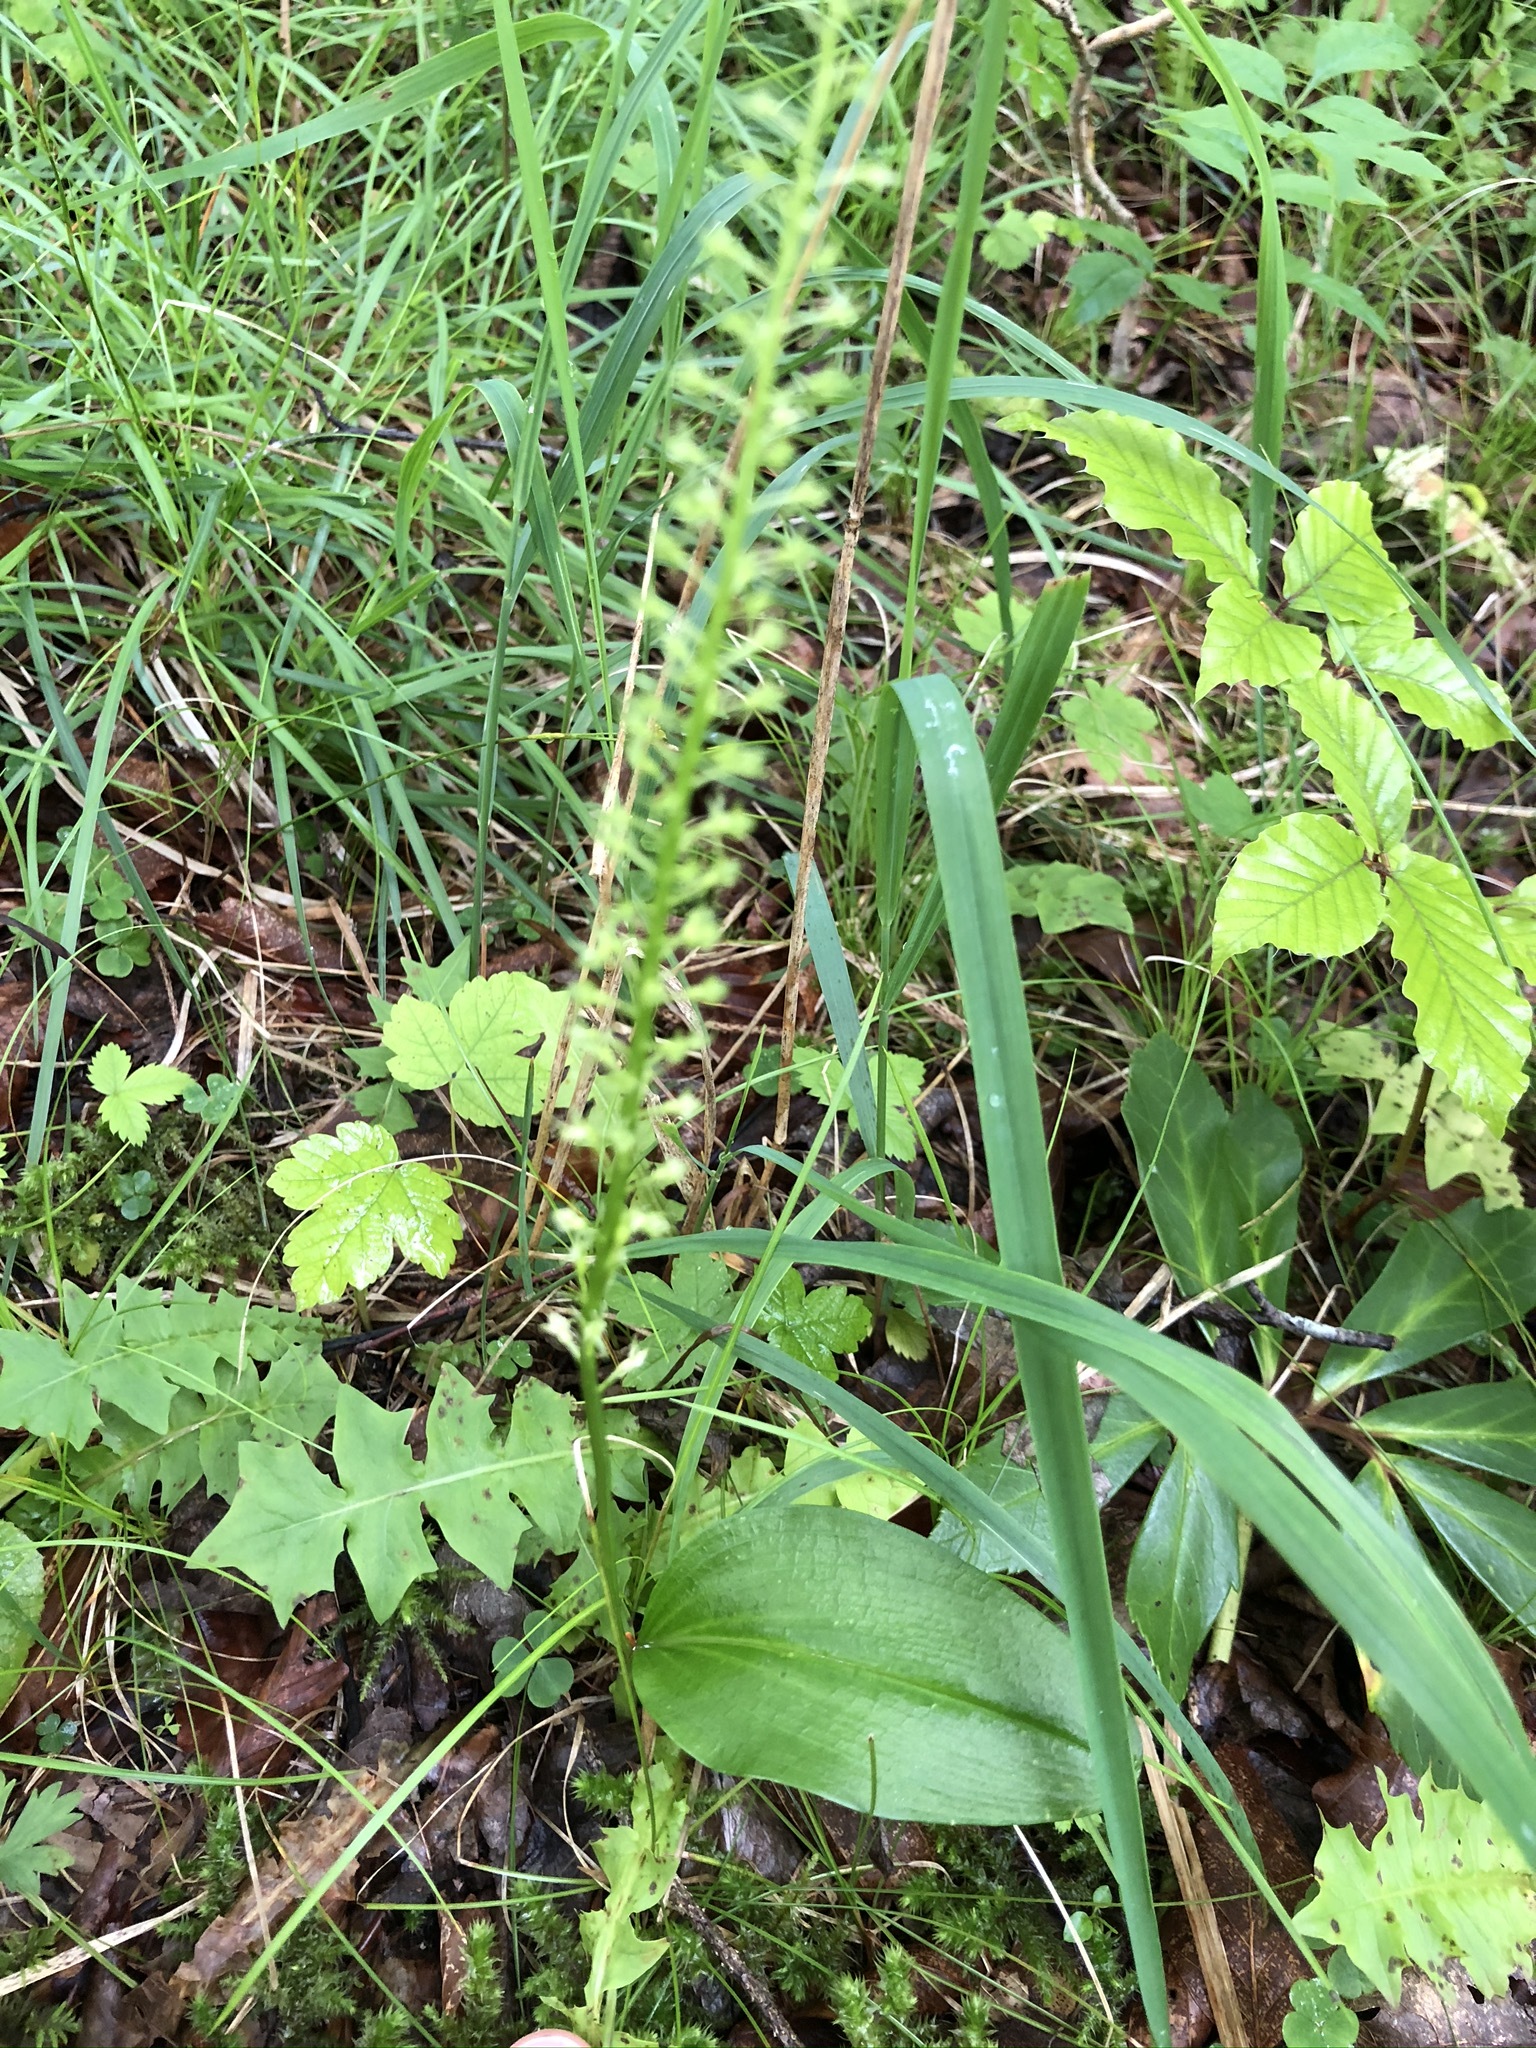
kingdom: Plantae
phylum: Tracheophyta
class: Liliopsida
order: Asparagales
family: Orchidaceae
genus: Malaxis
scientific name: Malaxis monophyllos
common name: White adder's-mouth
